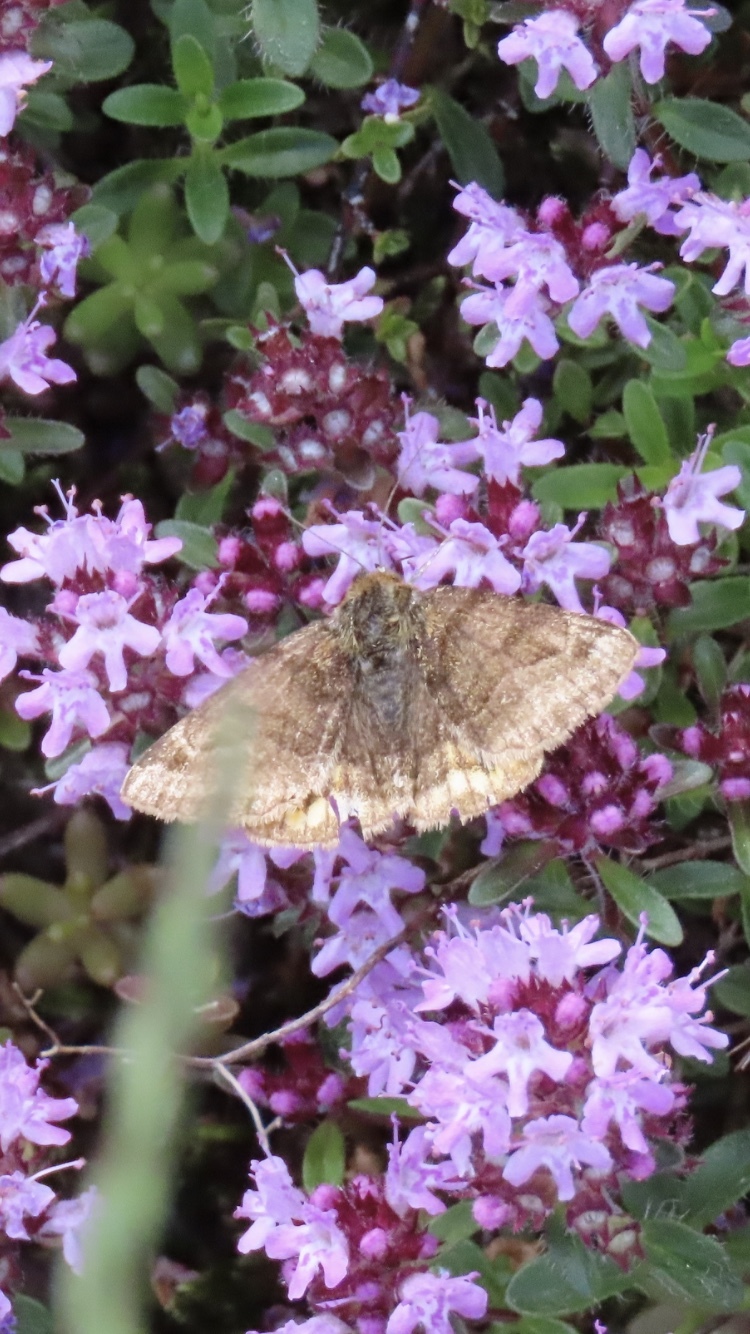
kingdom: Animalia
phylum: Arthropoda
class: Insecta
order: Lepidoptera
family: Erebidae
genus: Euclidia
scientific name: Euclidia glyphica
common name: Burnet companion
